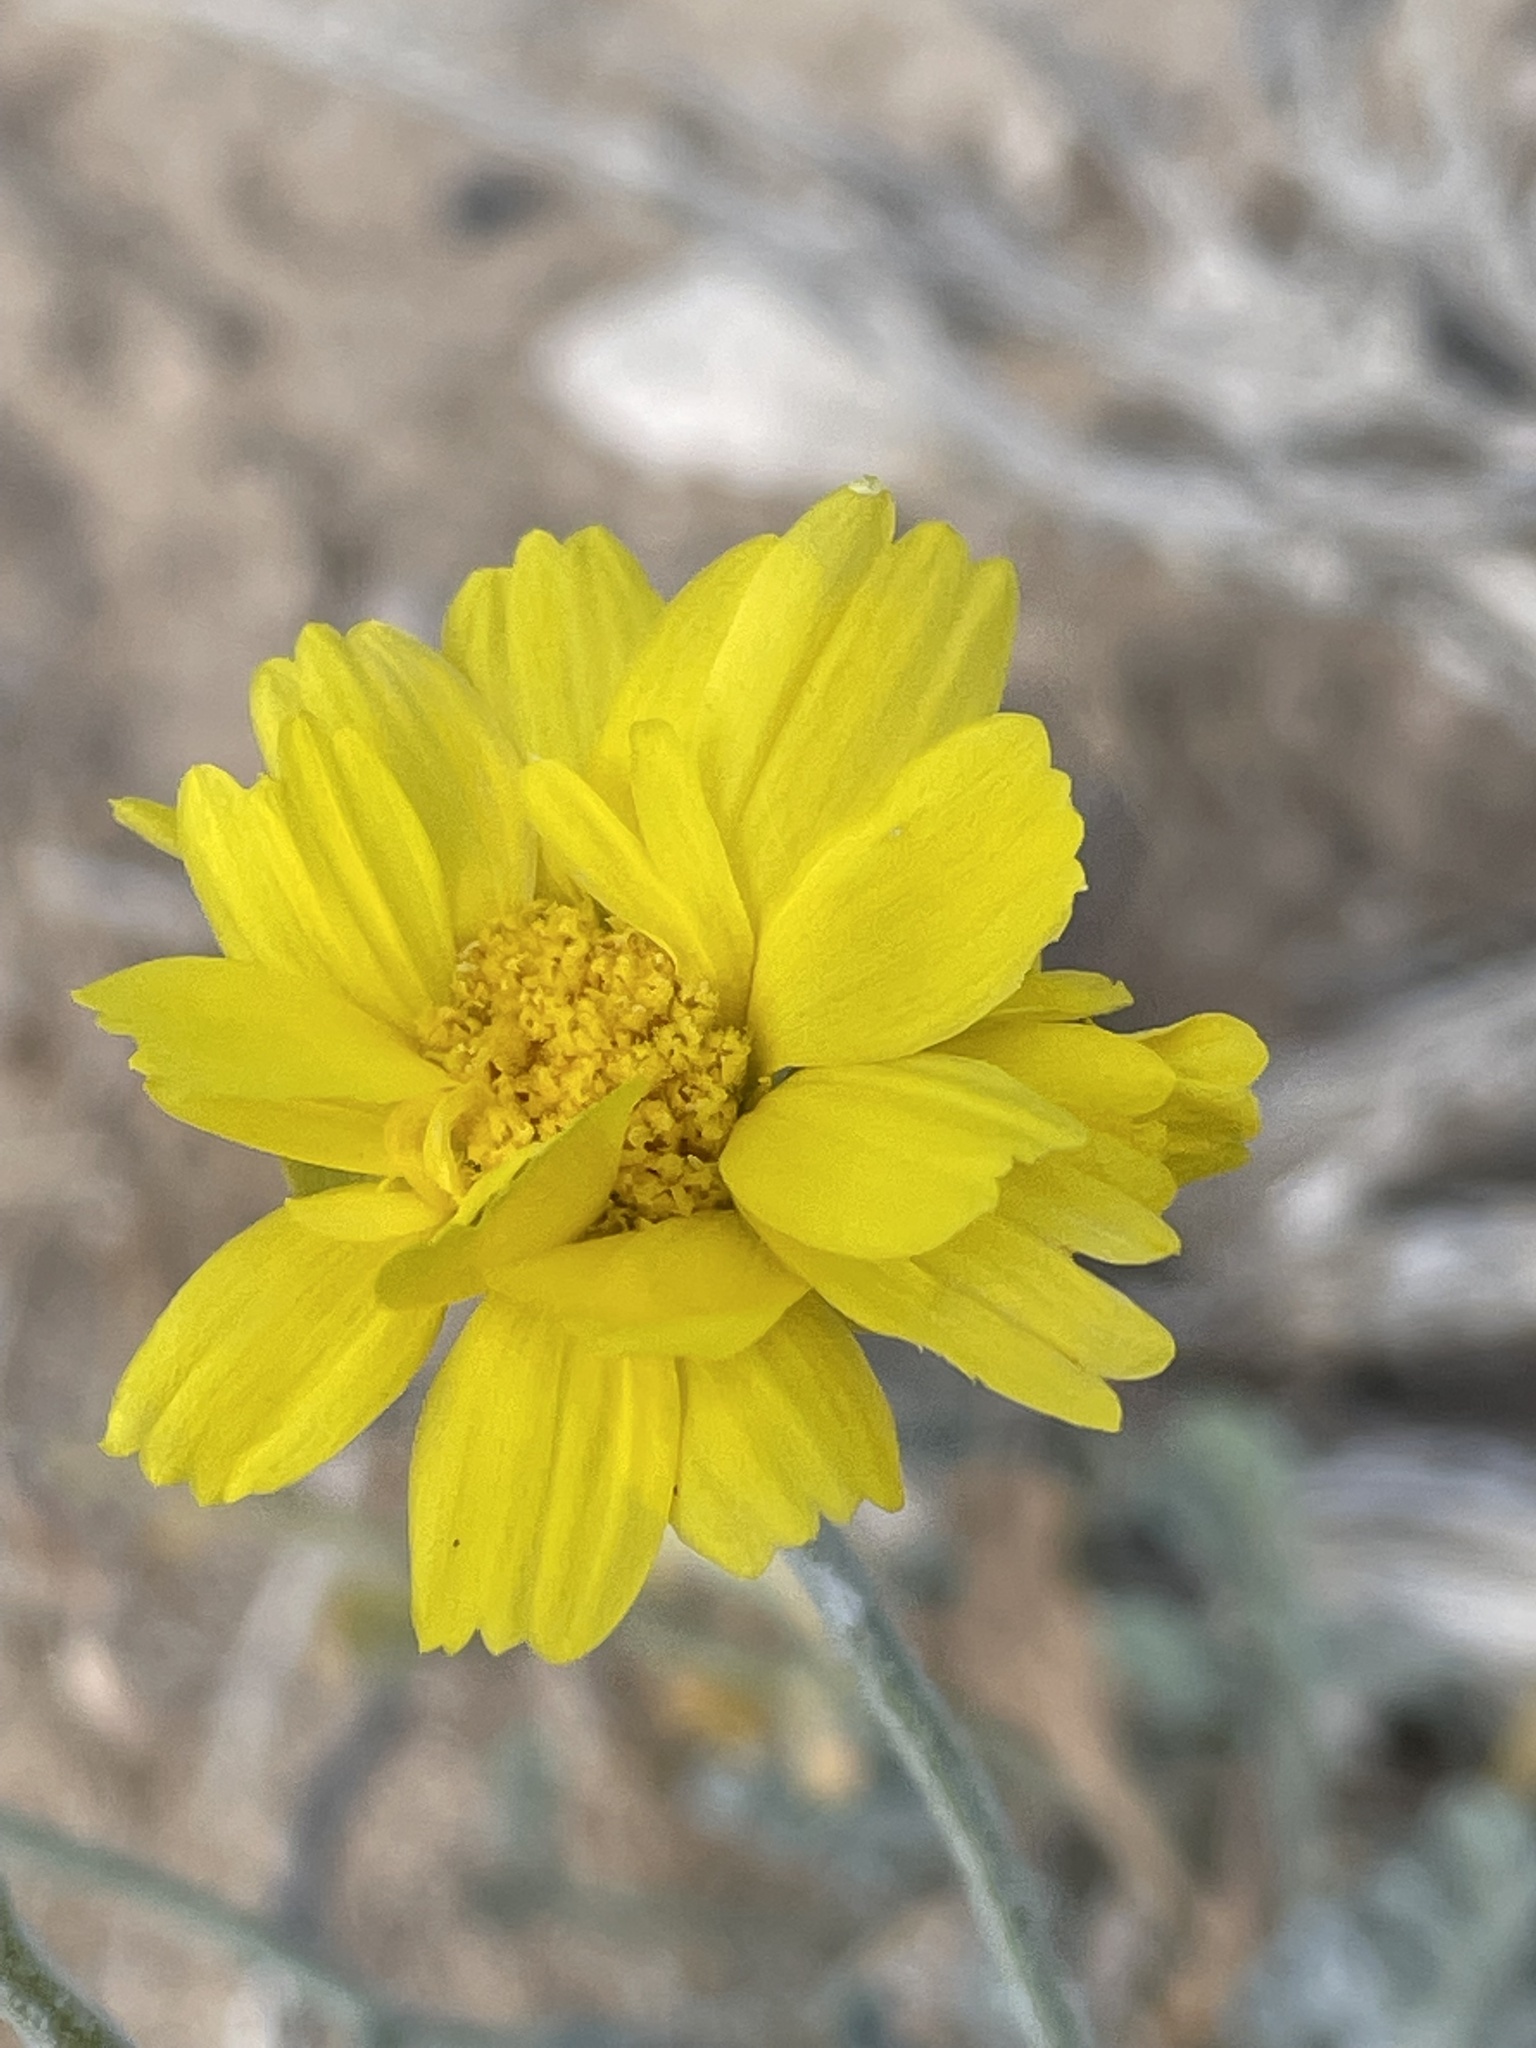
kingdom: Plantae
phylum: Tracheophyta
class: Magnoliopsida
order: Asterales
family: Asteraceae
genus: Baileya
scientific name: Baileya multiradiata
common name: Desert-marigold
